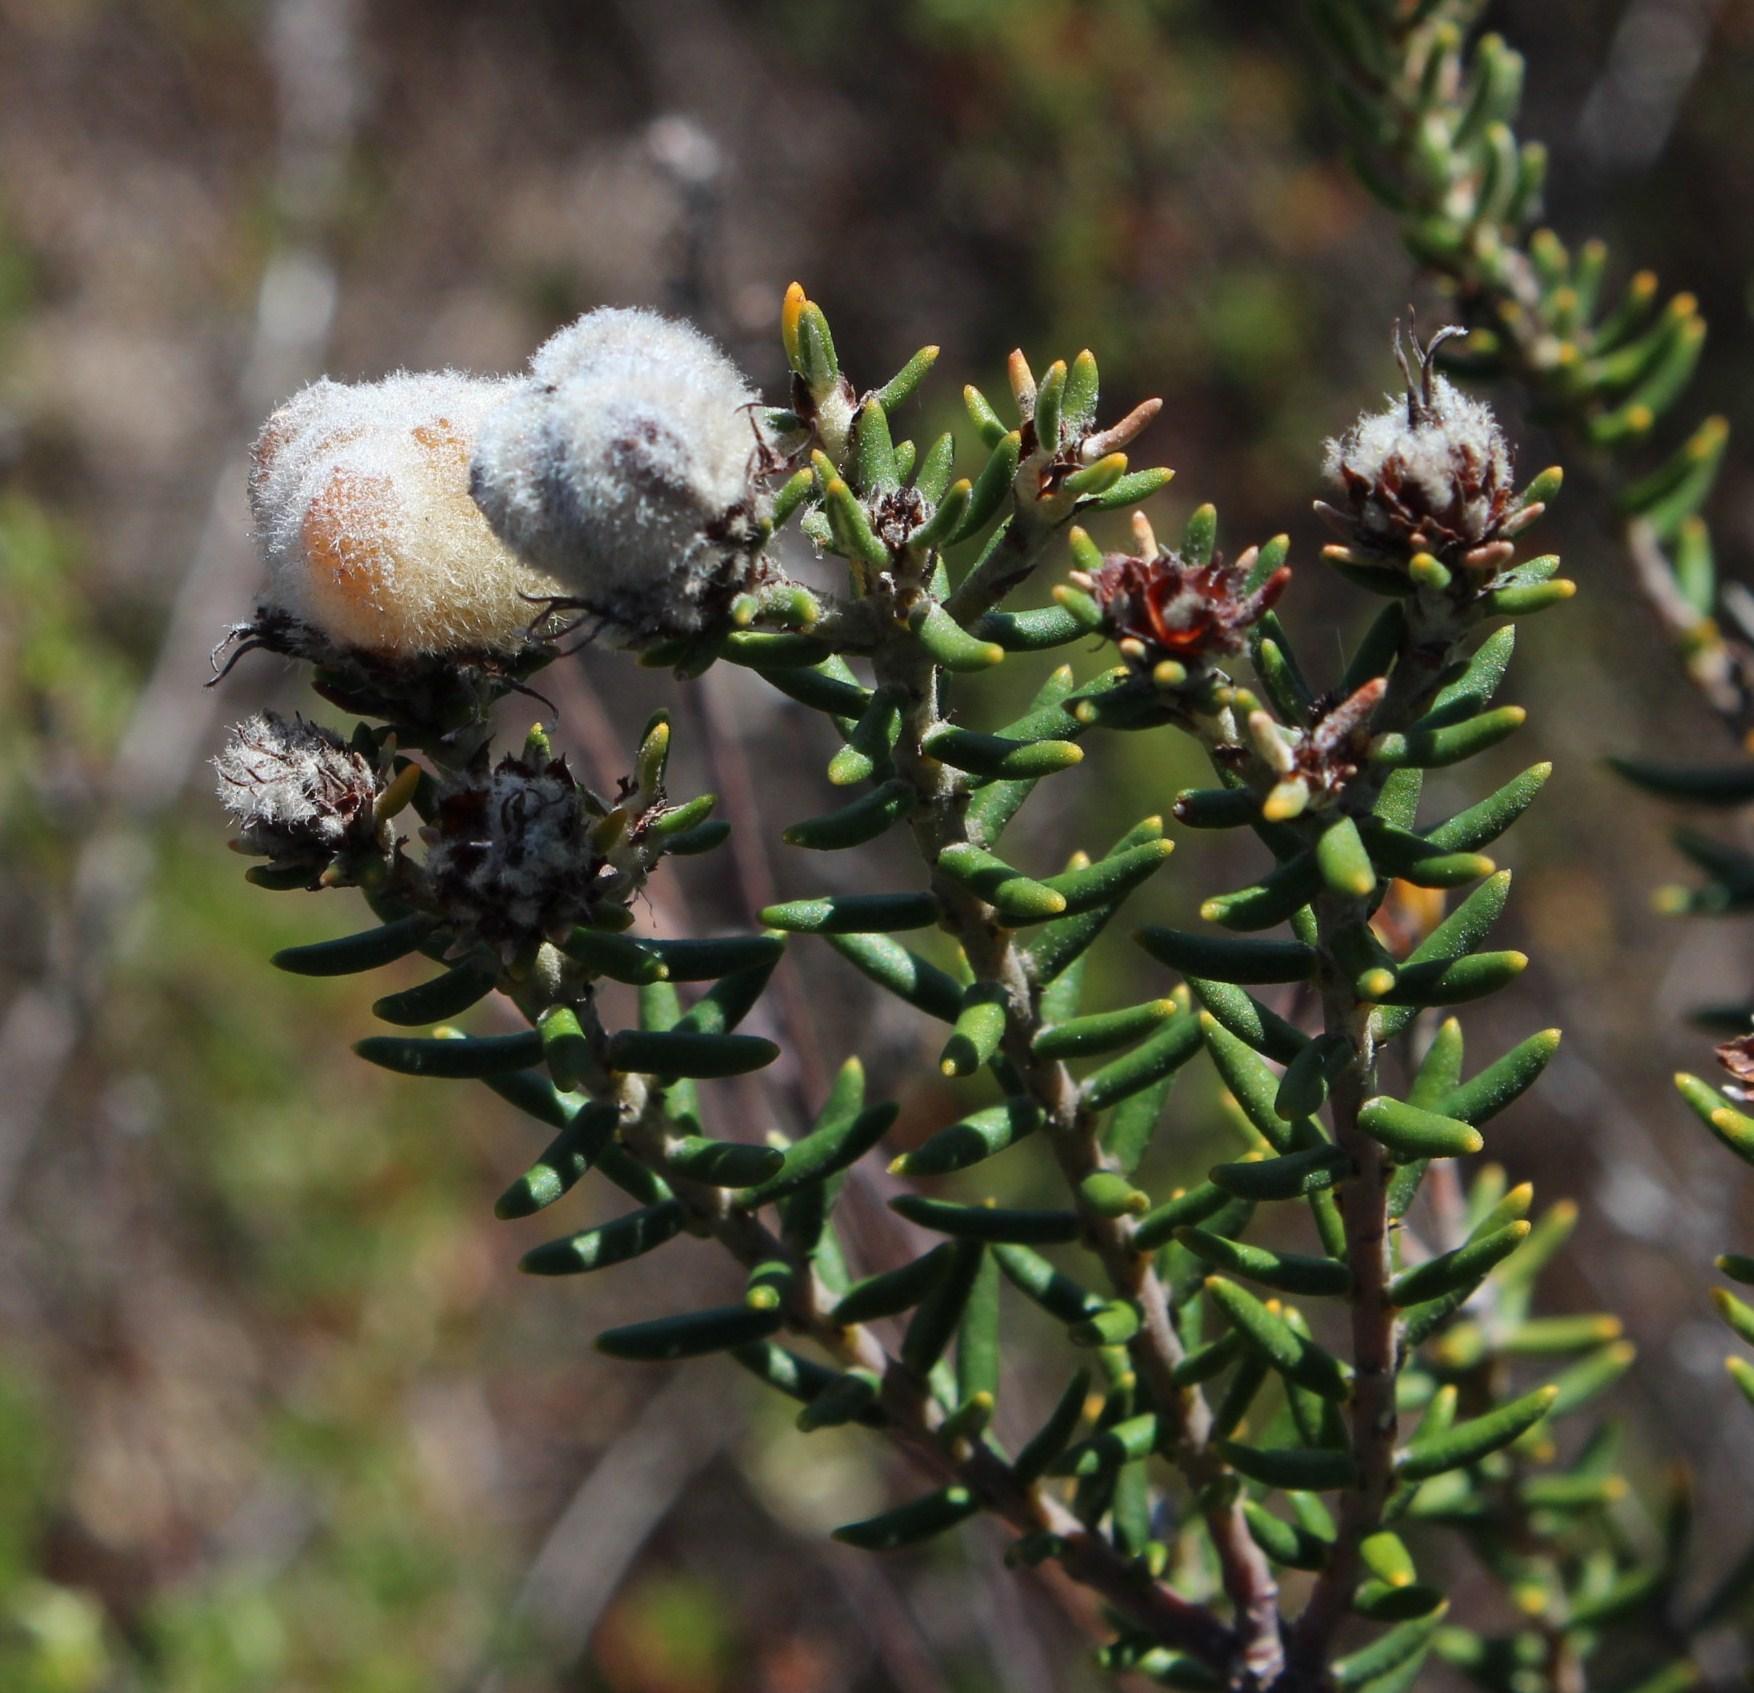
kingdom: Plantae
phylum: Tracheophyta
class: Magnoliopsida
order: Rosales
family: Rhamnaceae
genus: Trichocephalus
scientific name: Trichocephalus stipularis
